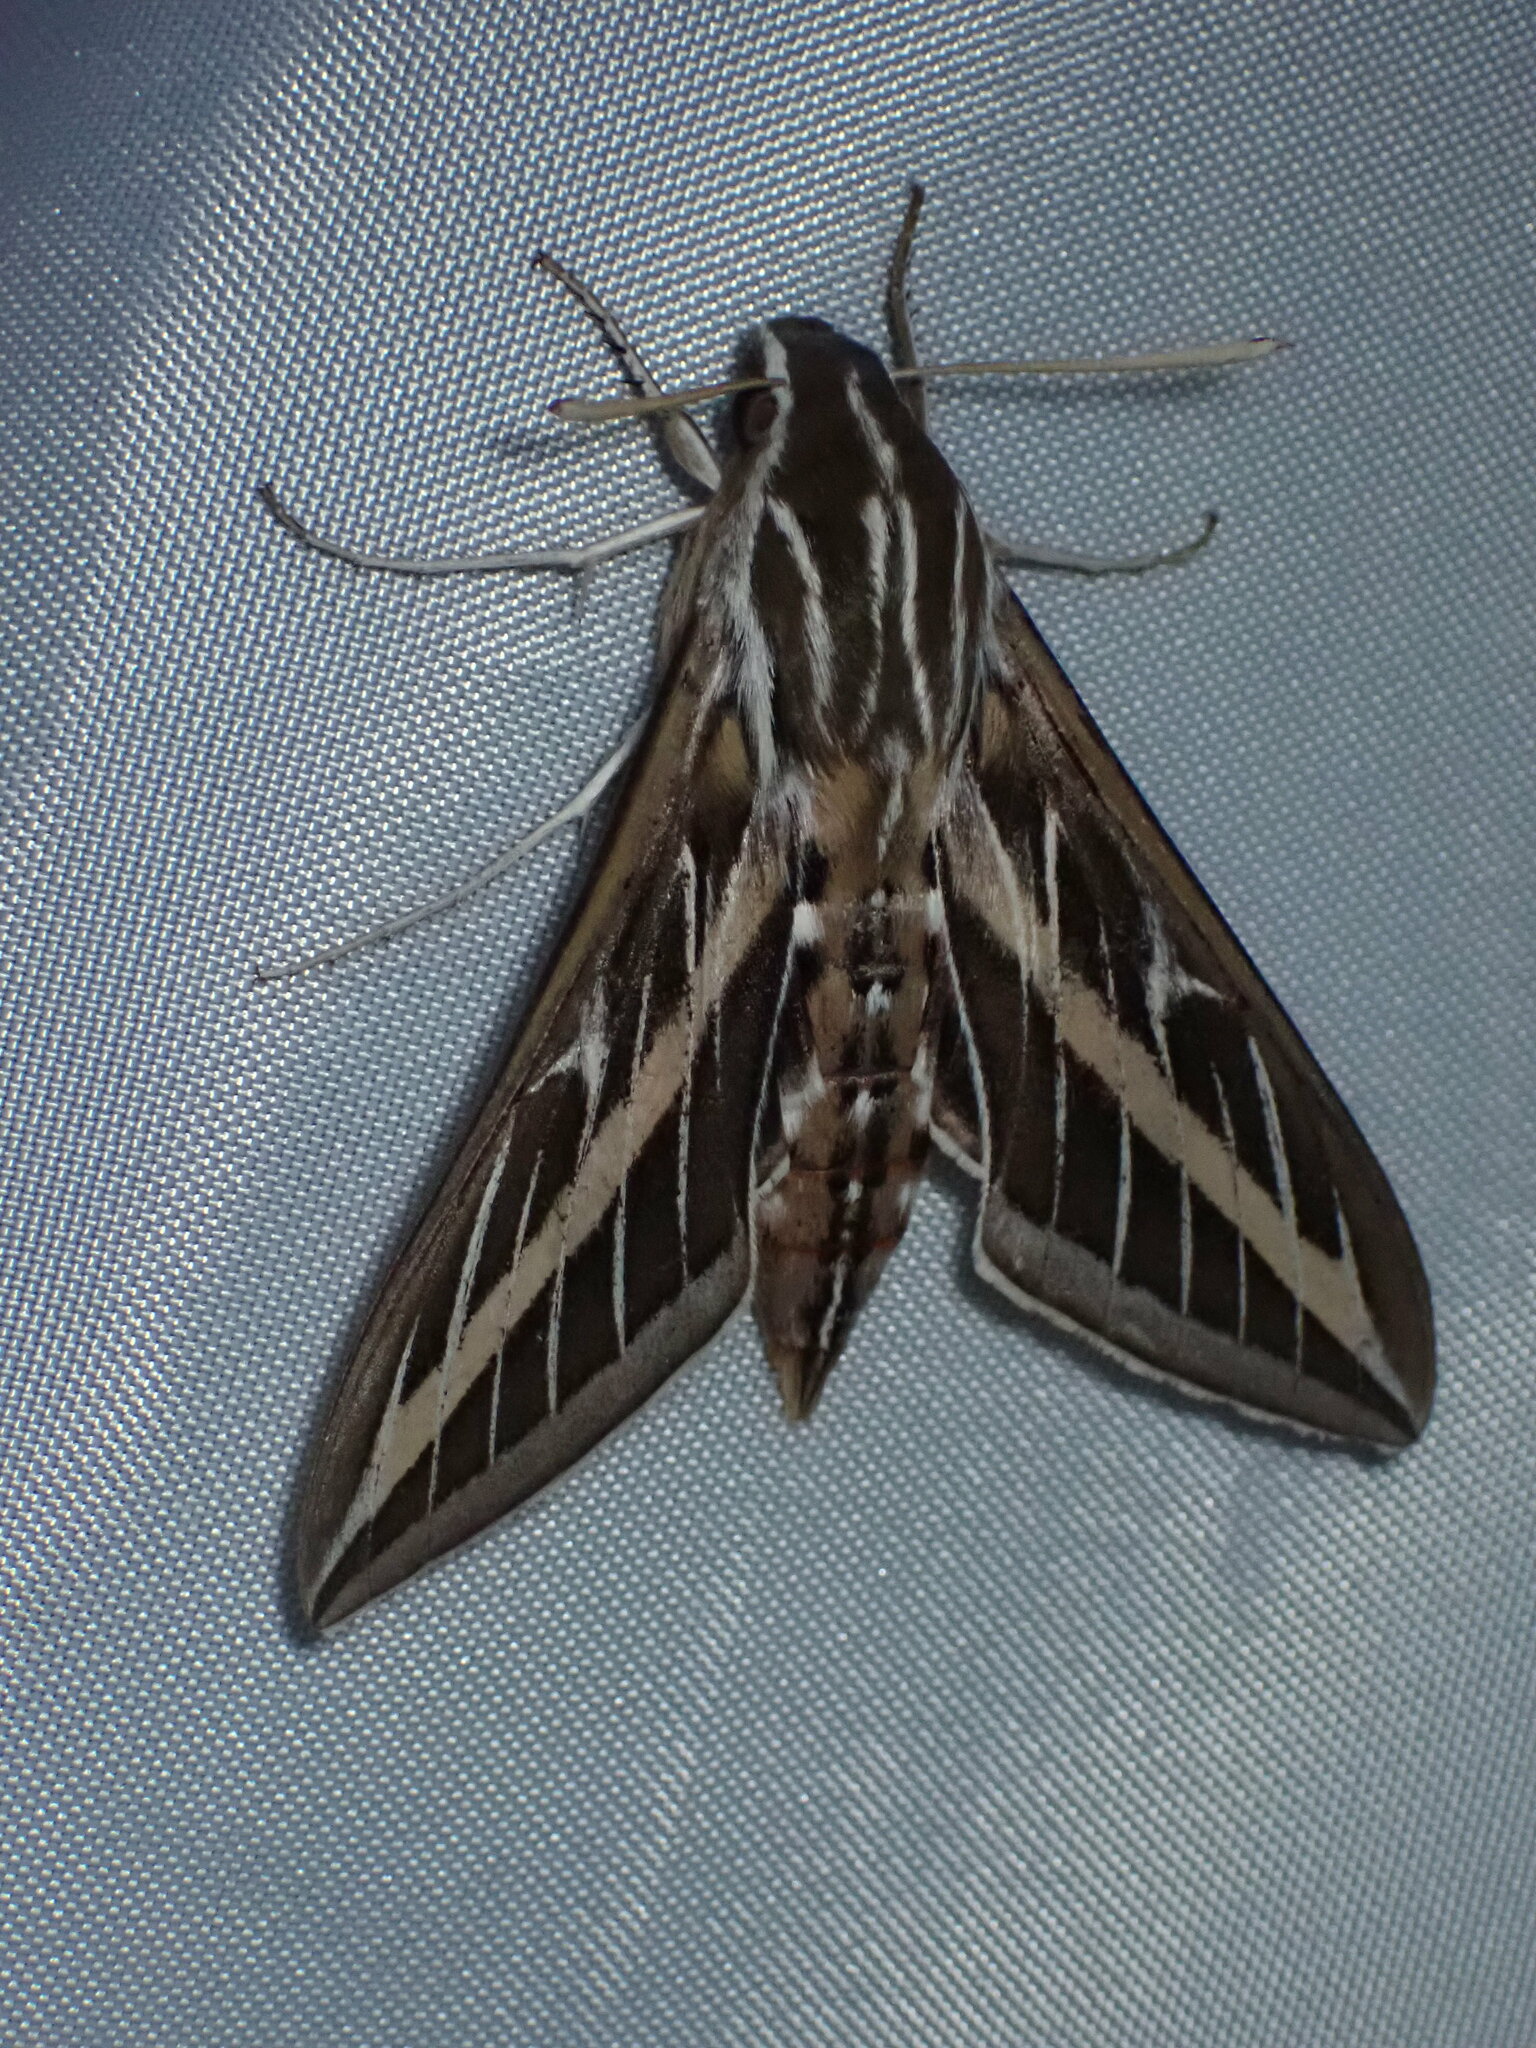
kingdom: Animalia
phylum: Arthropoda
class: Insecta
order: Lepidoptera
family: Sphingidae
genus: Hyles
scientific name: Hyles lineata
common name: White-lined sphinx
